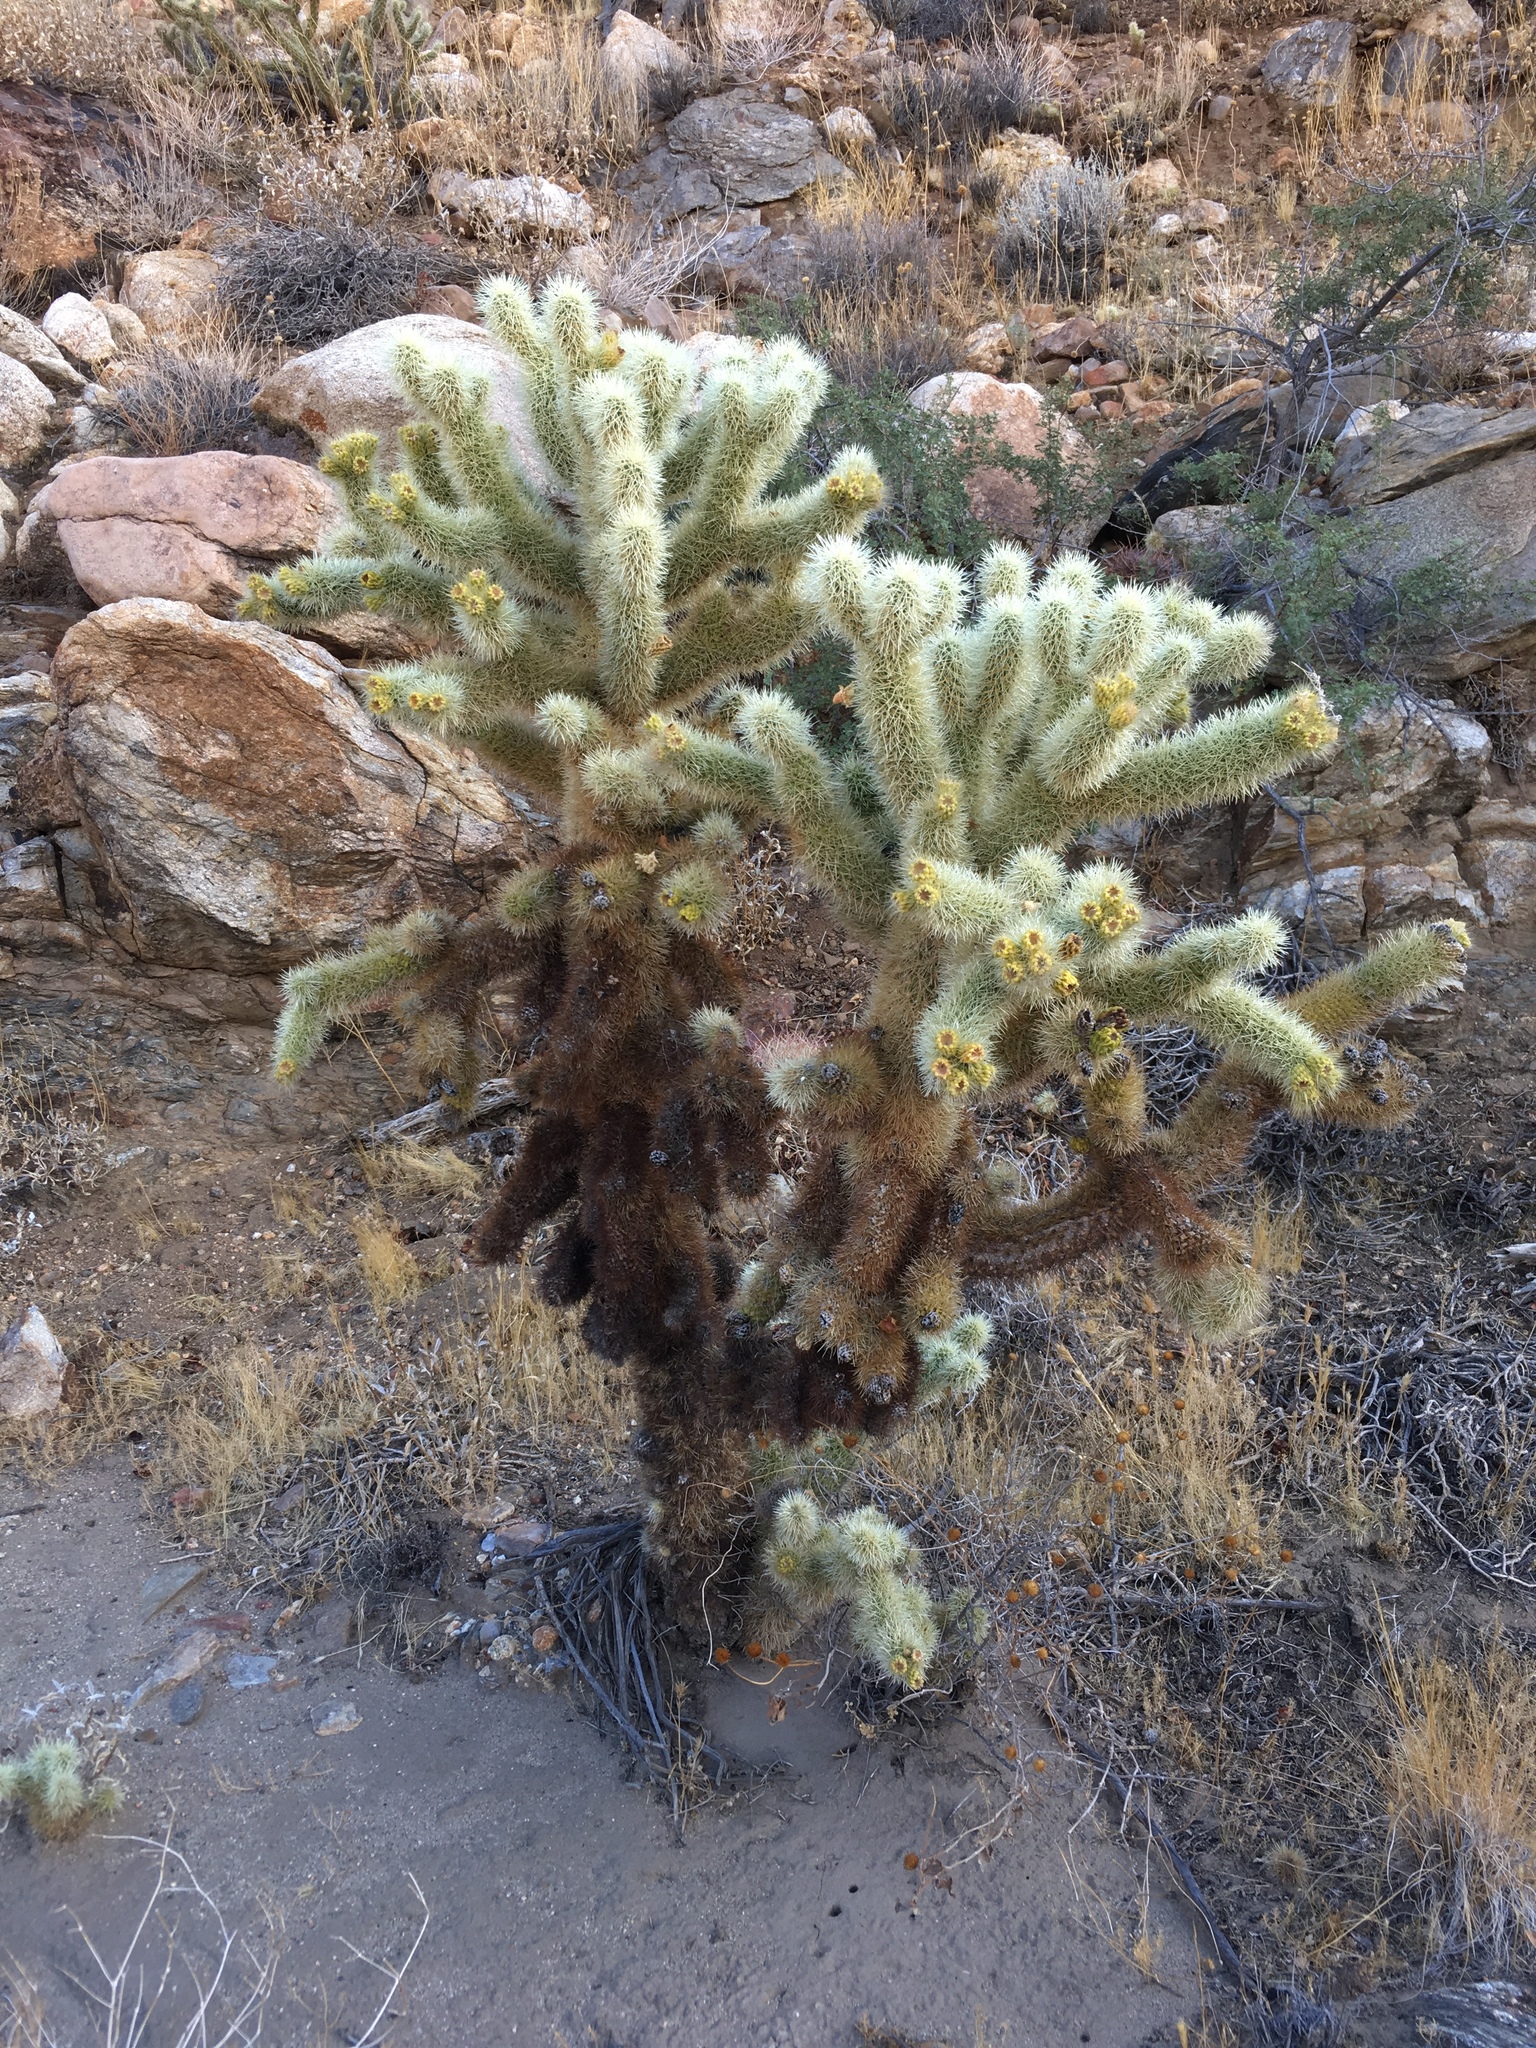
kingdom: Plantae
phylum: Tracheophyta
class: Magnoliopsida
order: Caryophyllales
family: Cactaceae
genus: Cylindropuntia
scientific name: Cylindropuntia fosbergii
